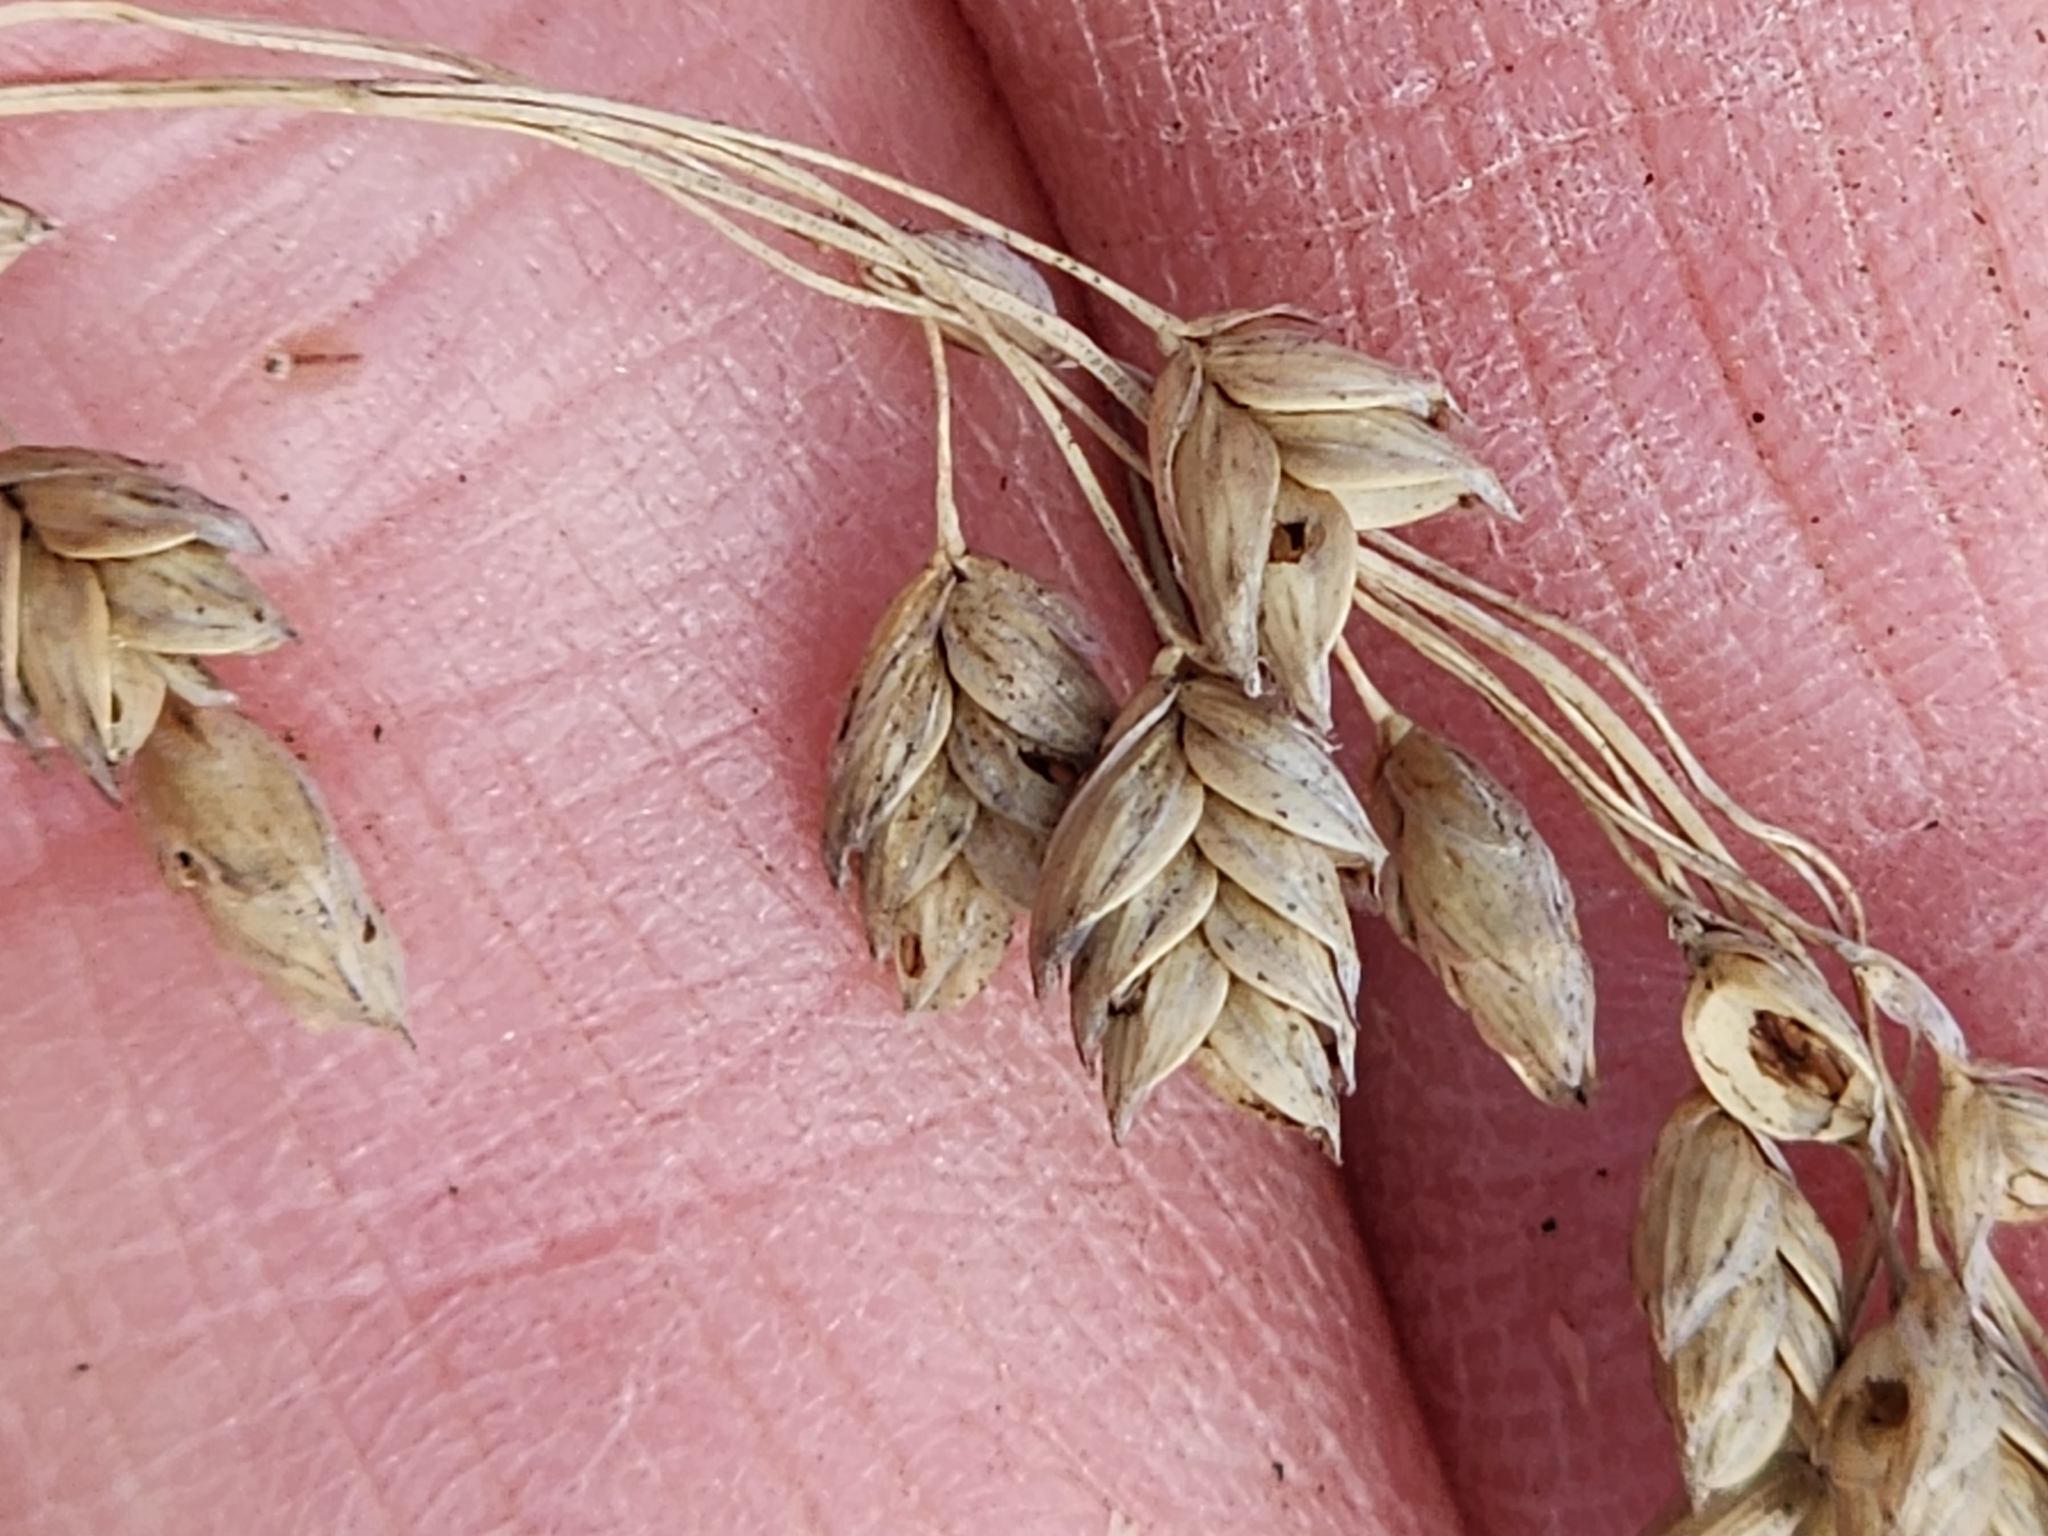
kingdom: Plantae
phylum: Tracheophyta
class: Liliopsida
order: Poales
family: Poaceae
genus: Glyceria
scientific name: Glyceria canadensis
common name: Canada mannagrass
